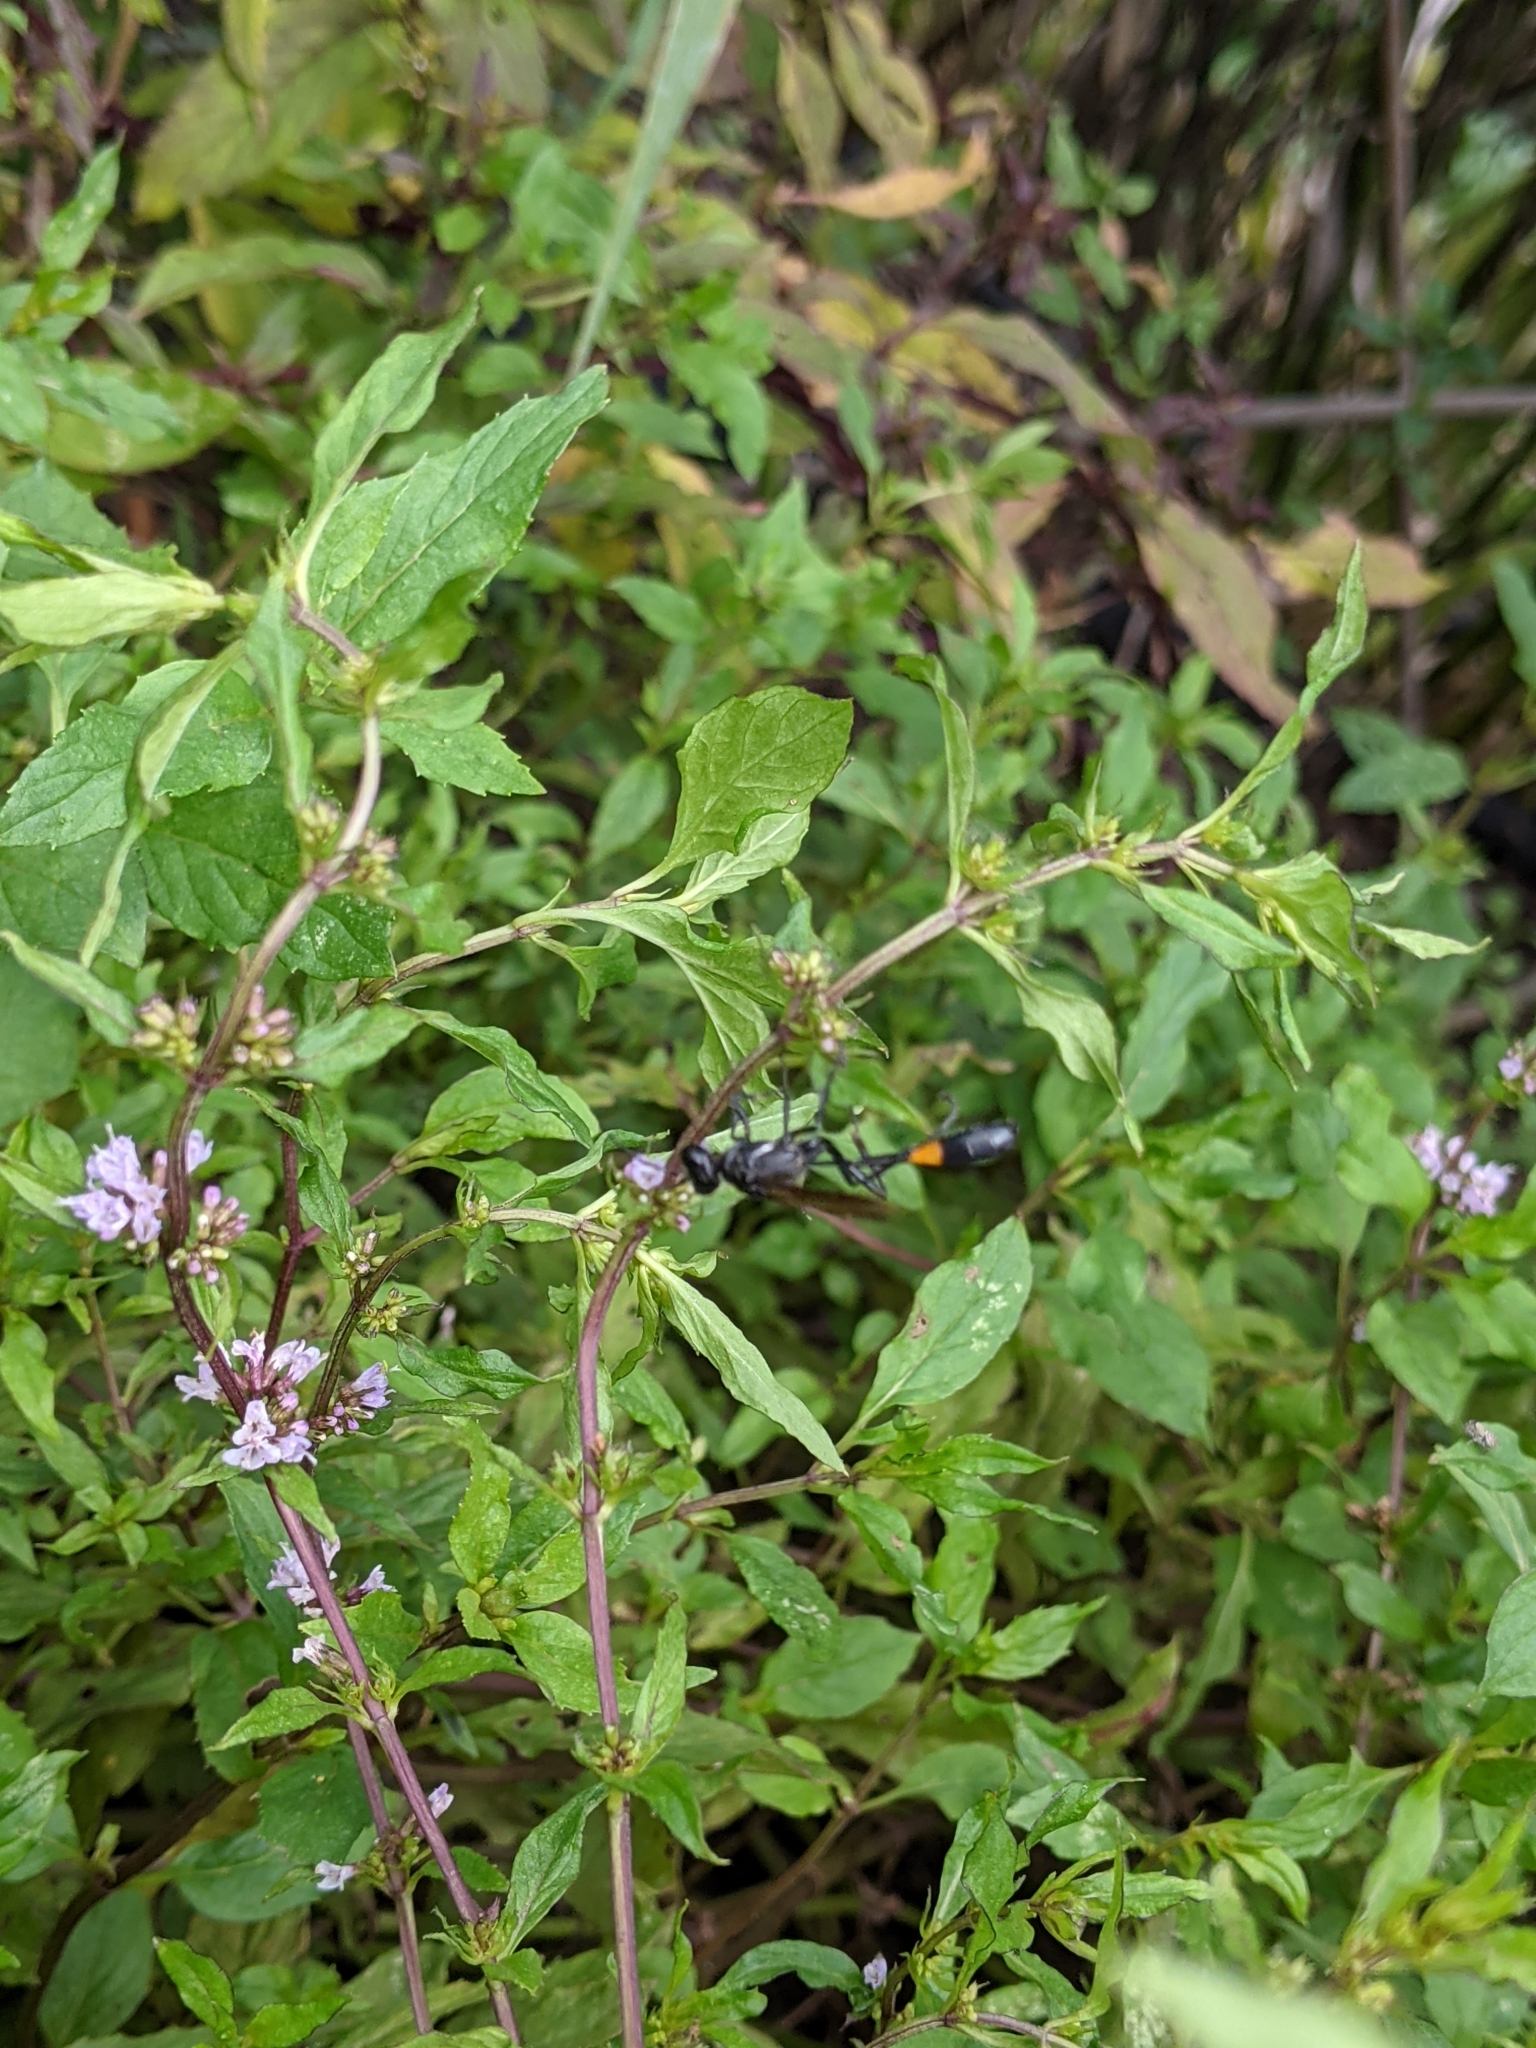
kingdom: Animalia
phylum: Arthropoda
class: Insecta
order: Hymenoptera
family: Sphecidae
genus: Ammophila
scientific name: Ammophila procera
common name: Common thread-waisted wasp
